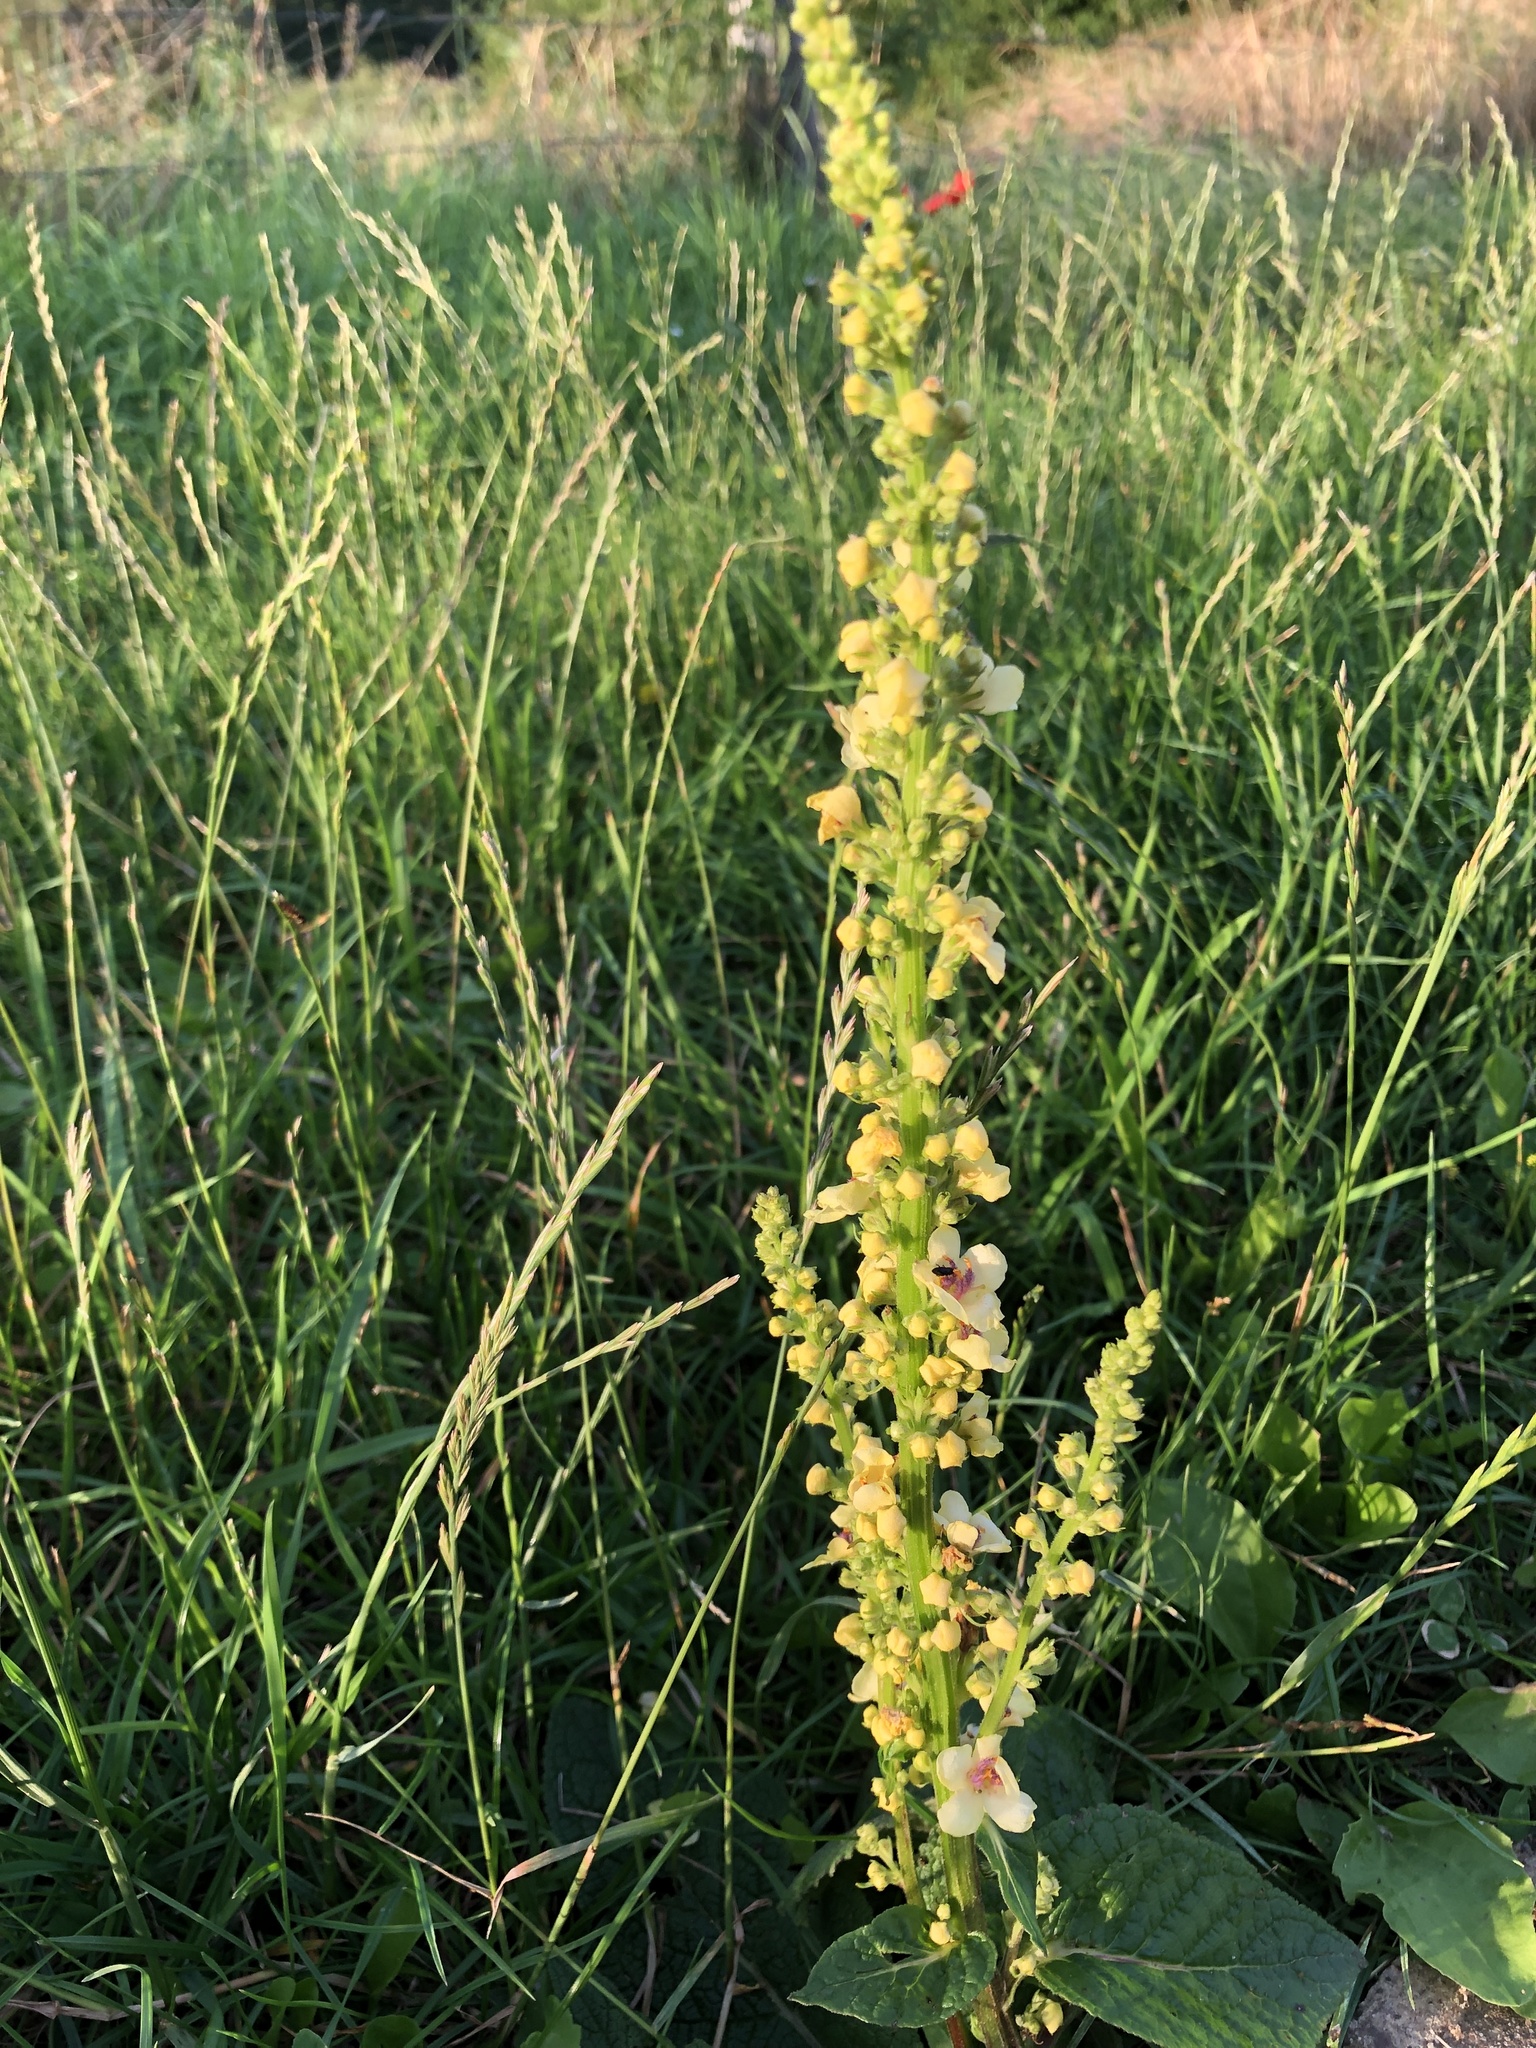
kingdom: Plantae
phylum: Tracheophyta
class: Magnoliopsida
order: Lamiales
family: Scrophulariaceae
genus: Verbascum
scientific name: Verbascum nigrum
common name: Dark mullein
